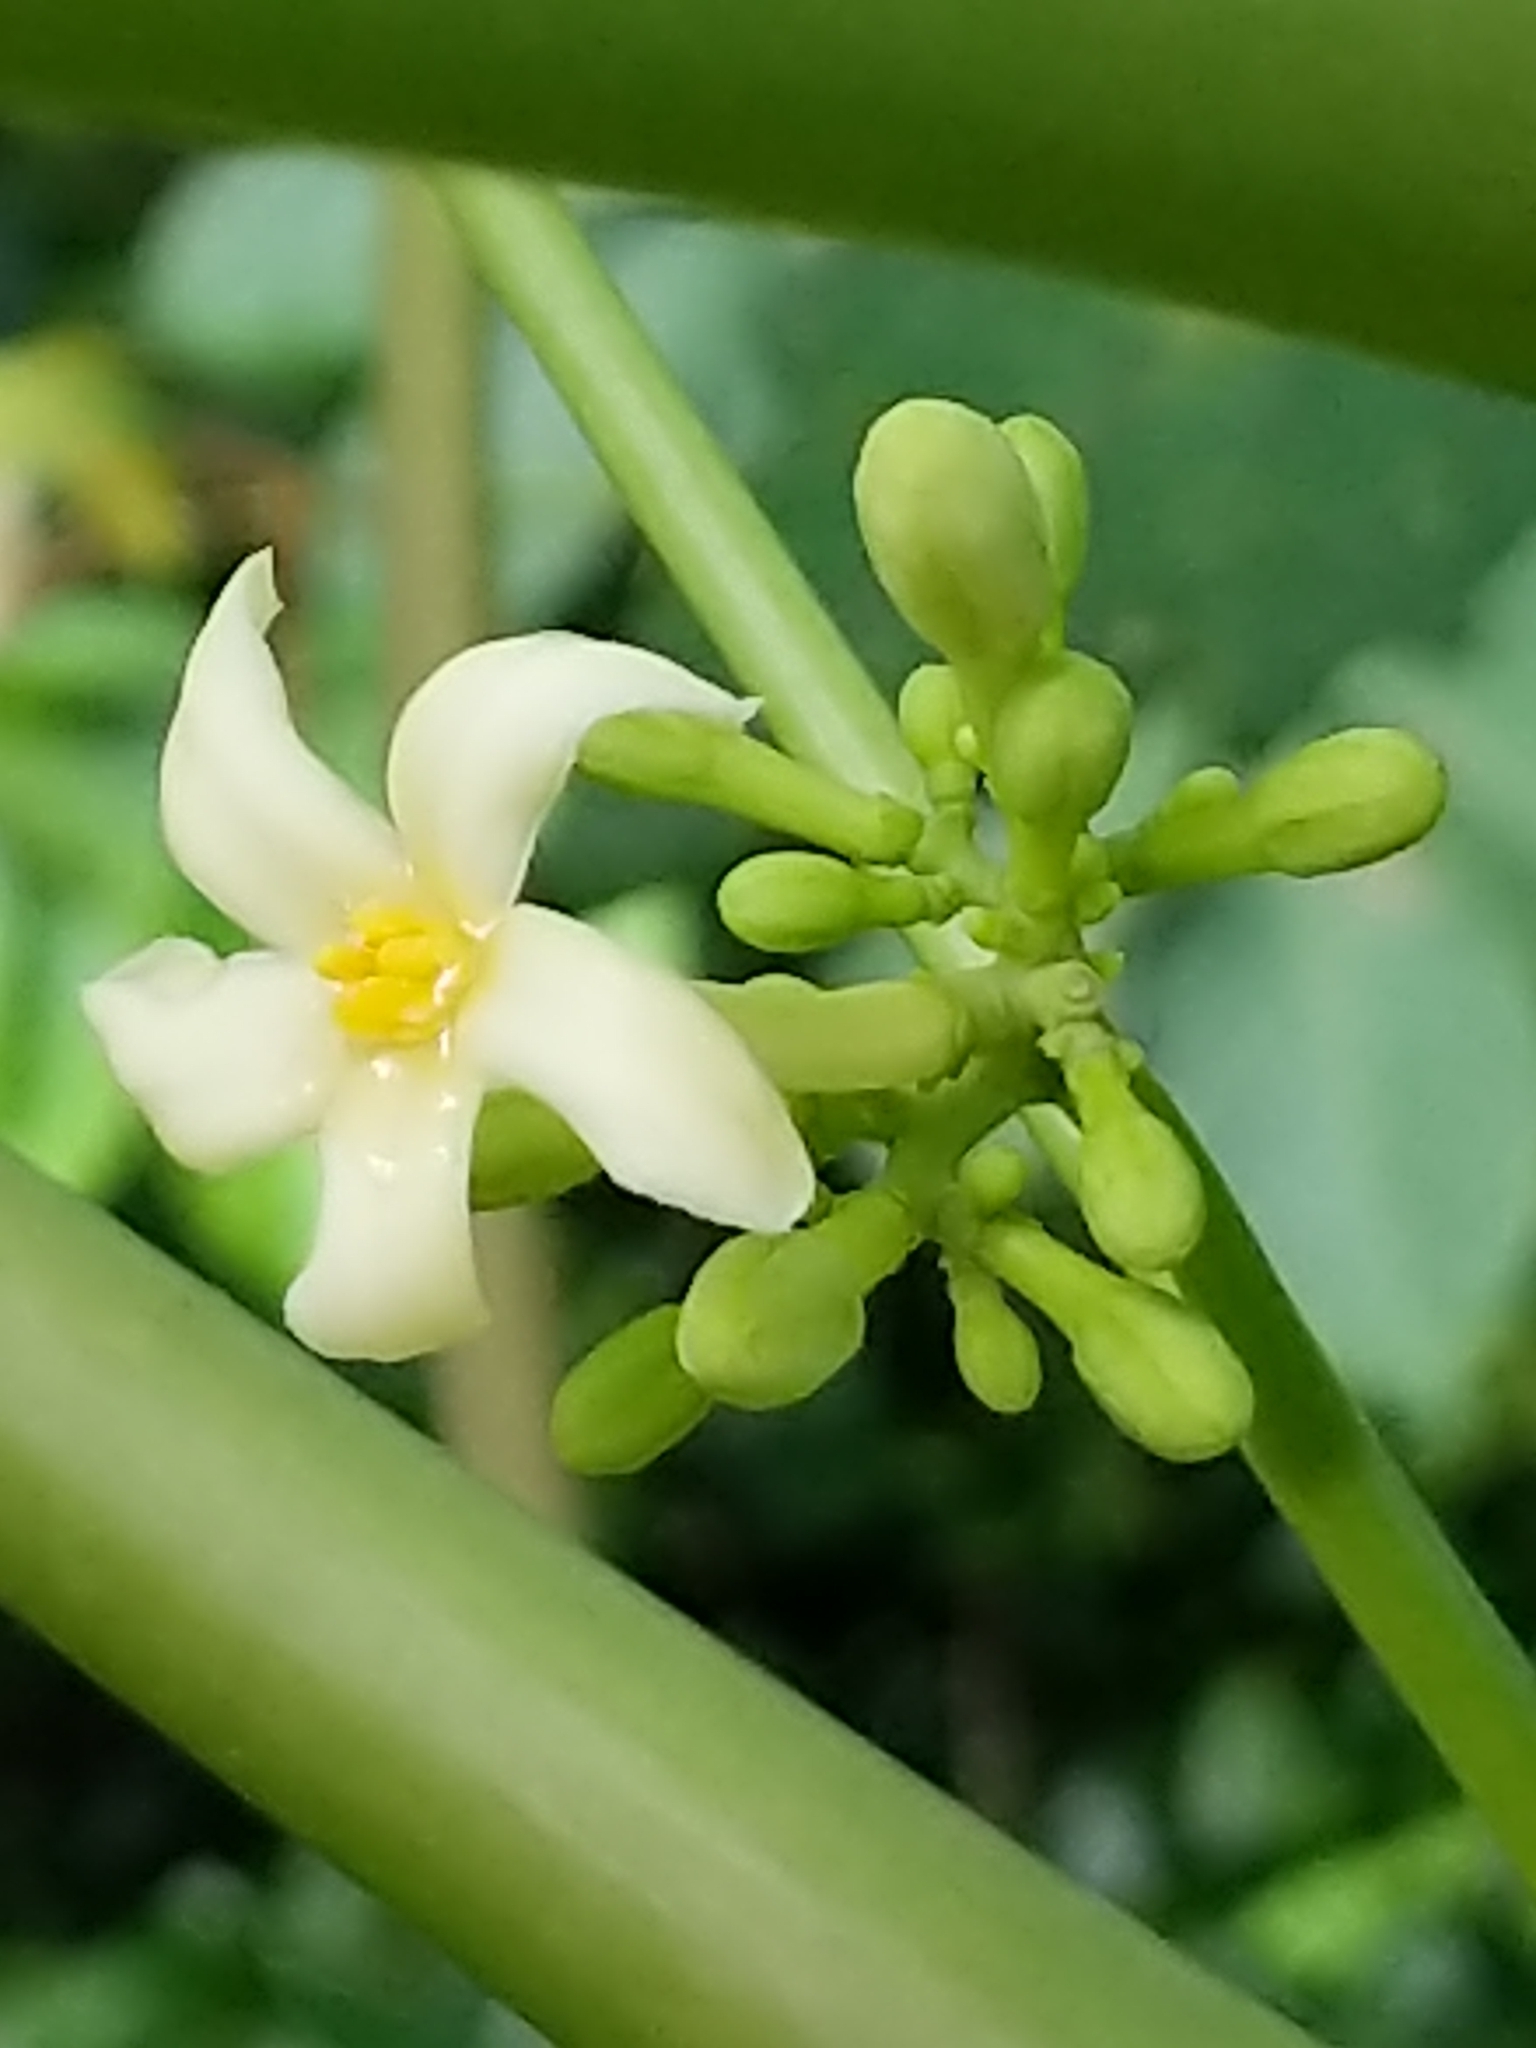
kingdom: Plantae
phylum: Tracheophyta
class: Magnoliopsida
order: Brassicales
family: Caricaceae
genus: Carica
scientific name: Carica papaya
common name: Papaya
